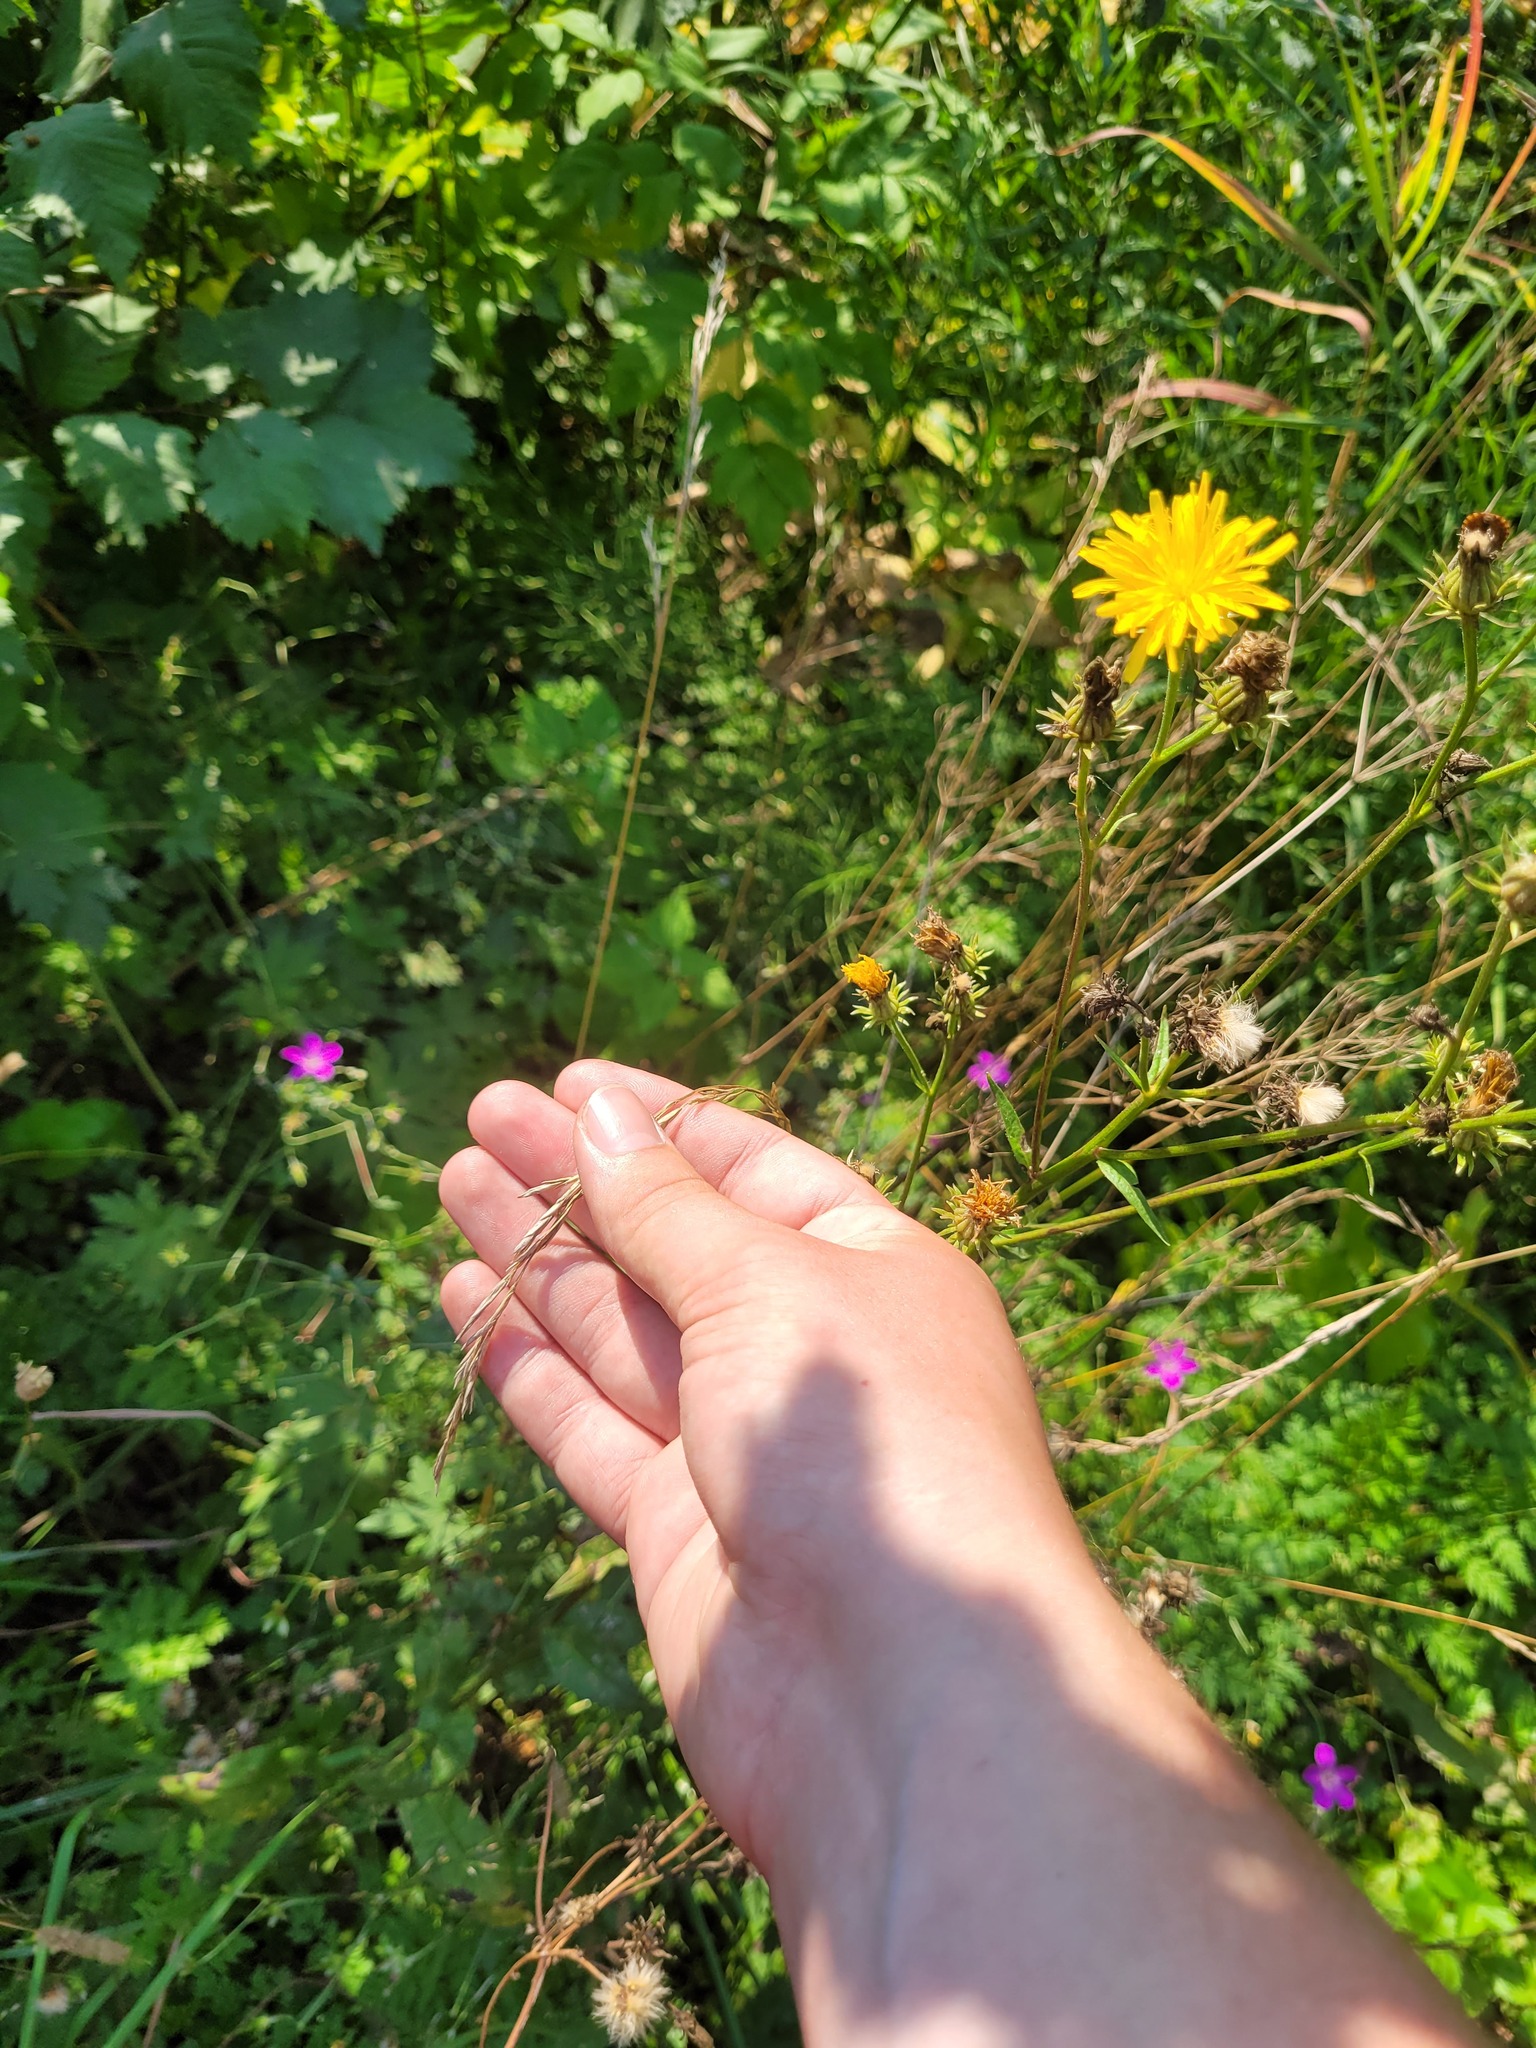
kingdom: Plantae
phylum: Tracheophyta
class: Liliopsida
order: Poales
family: Poaceae
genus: Lolium
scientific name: Lolium pratense
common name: Dover grass
